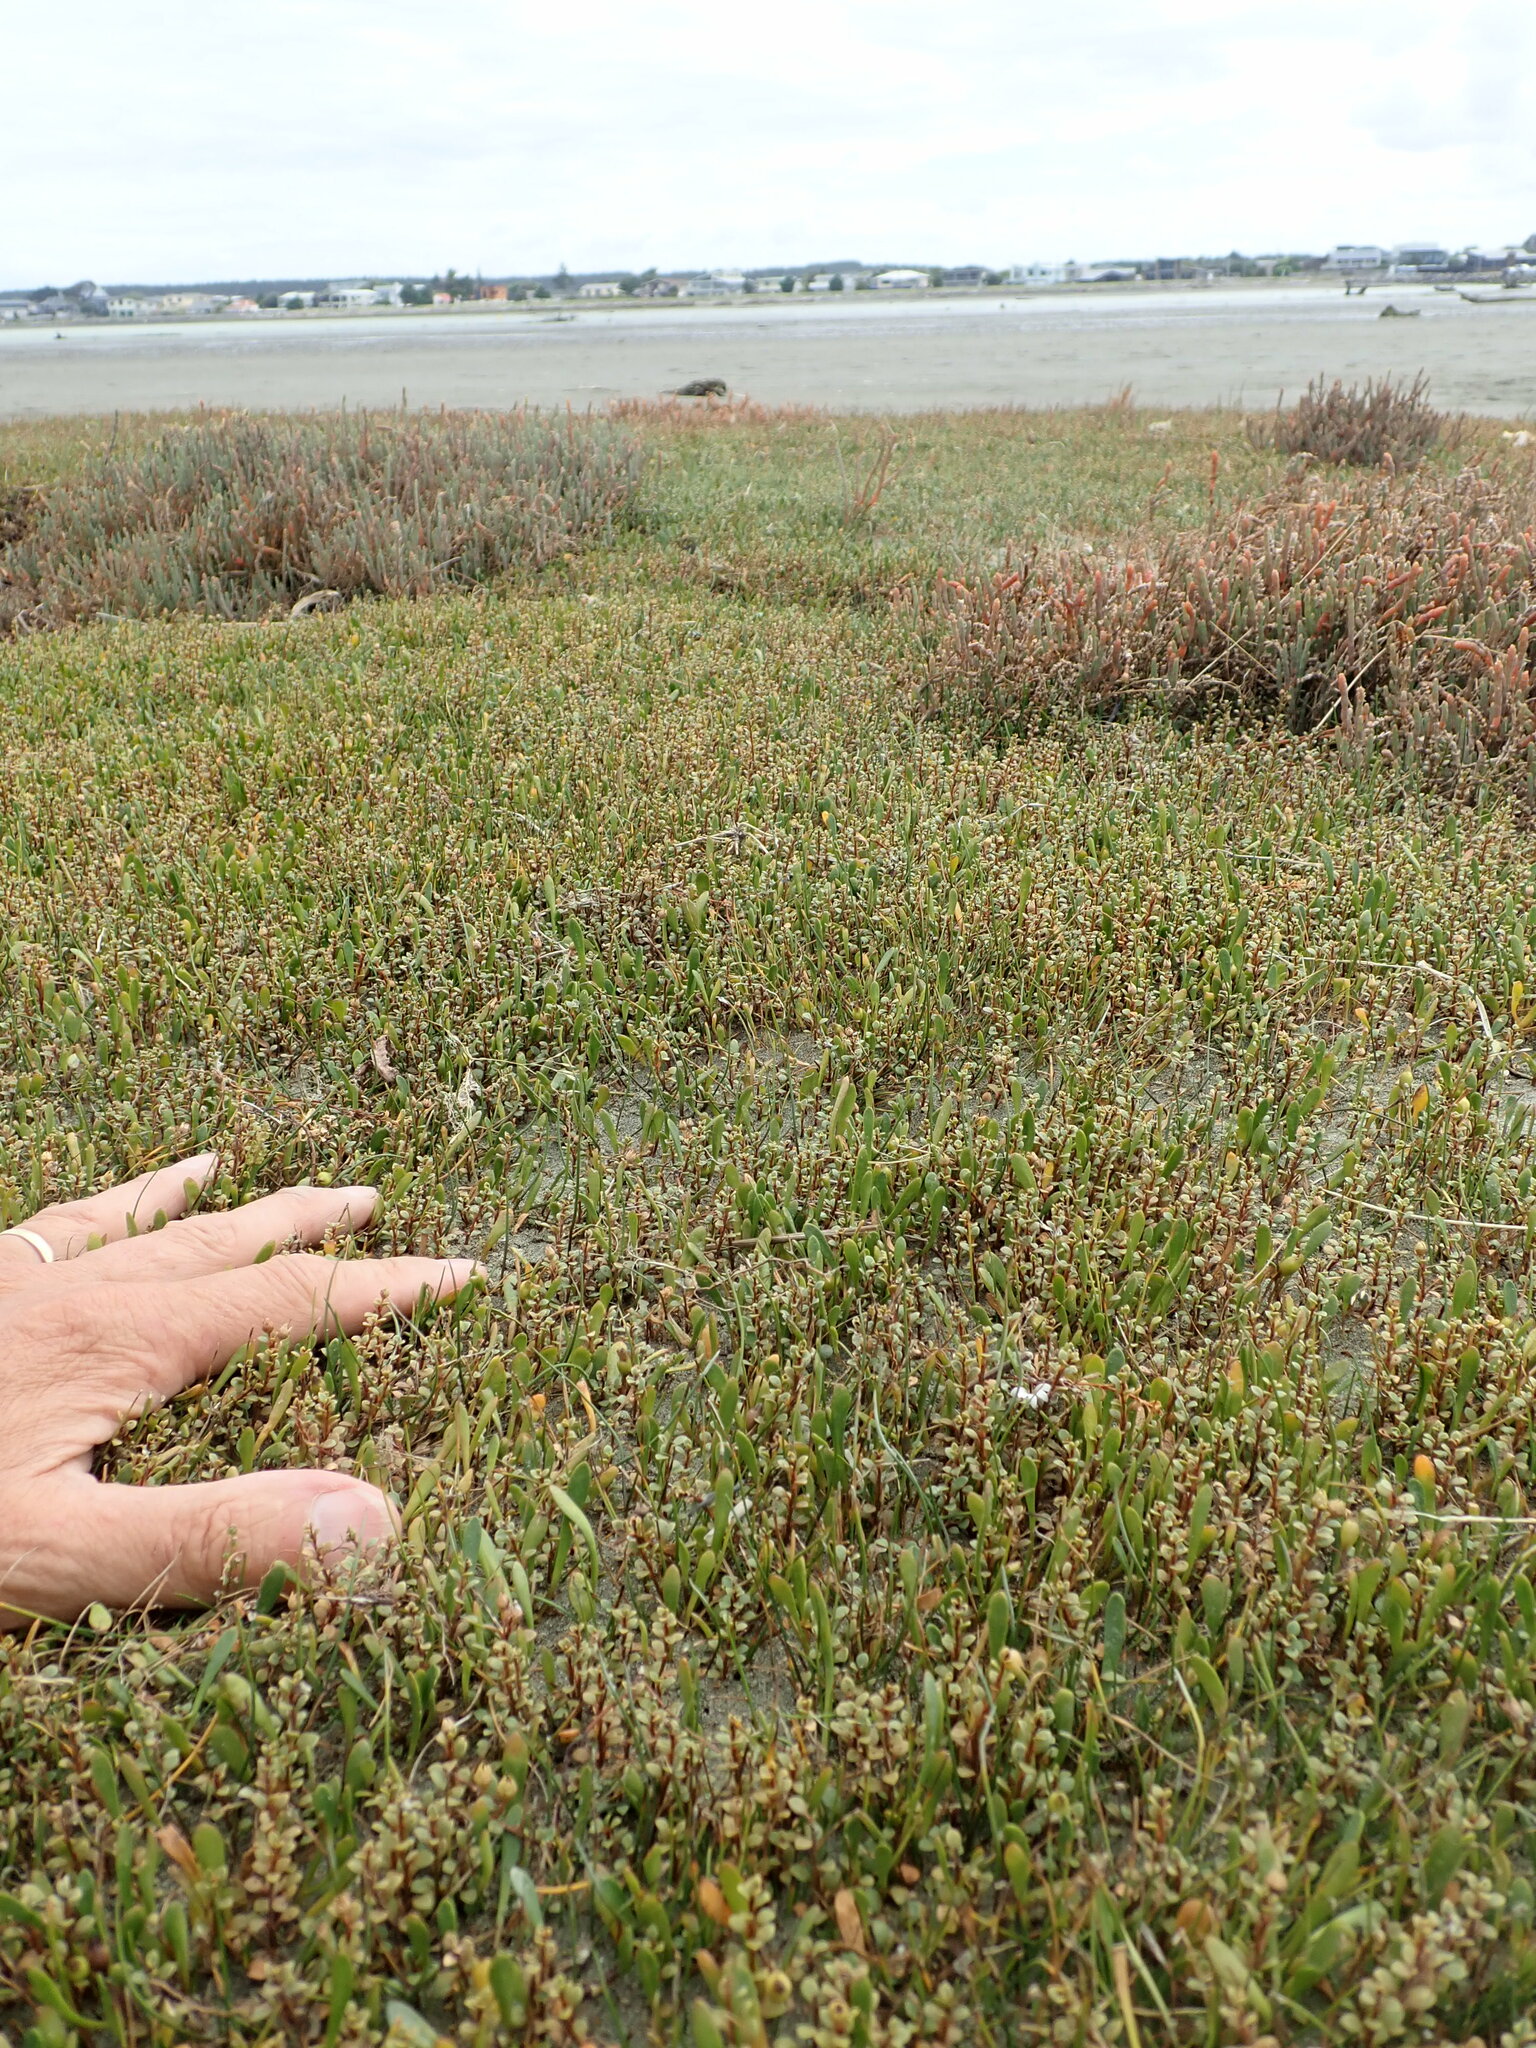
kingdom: Plantae
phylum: Tracheophyta
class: Magnoliopsida
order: Ericales
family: Primulaceae
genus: Samolus
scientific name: Samolus repens
